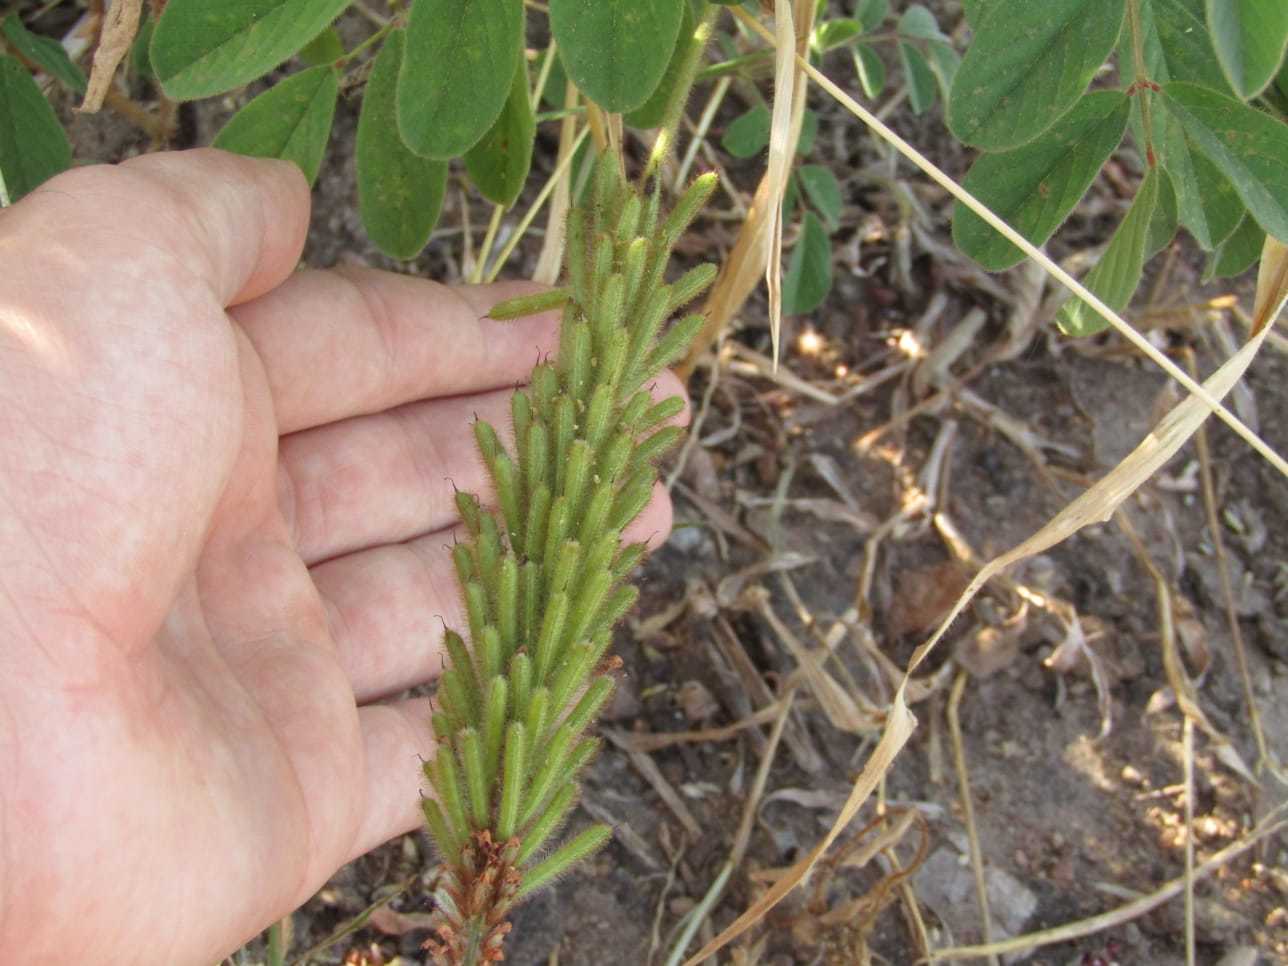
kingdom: Plantae
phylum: Tracheophyta
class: Magnoliopsida
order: Fabales
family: Fabaceae
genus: Indigofera
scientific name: Indigofera hirsuta
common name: Hairy indigo
